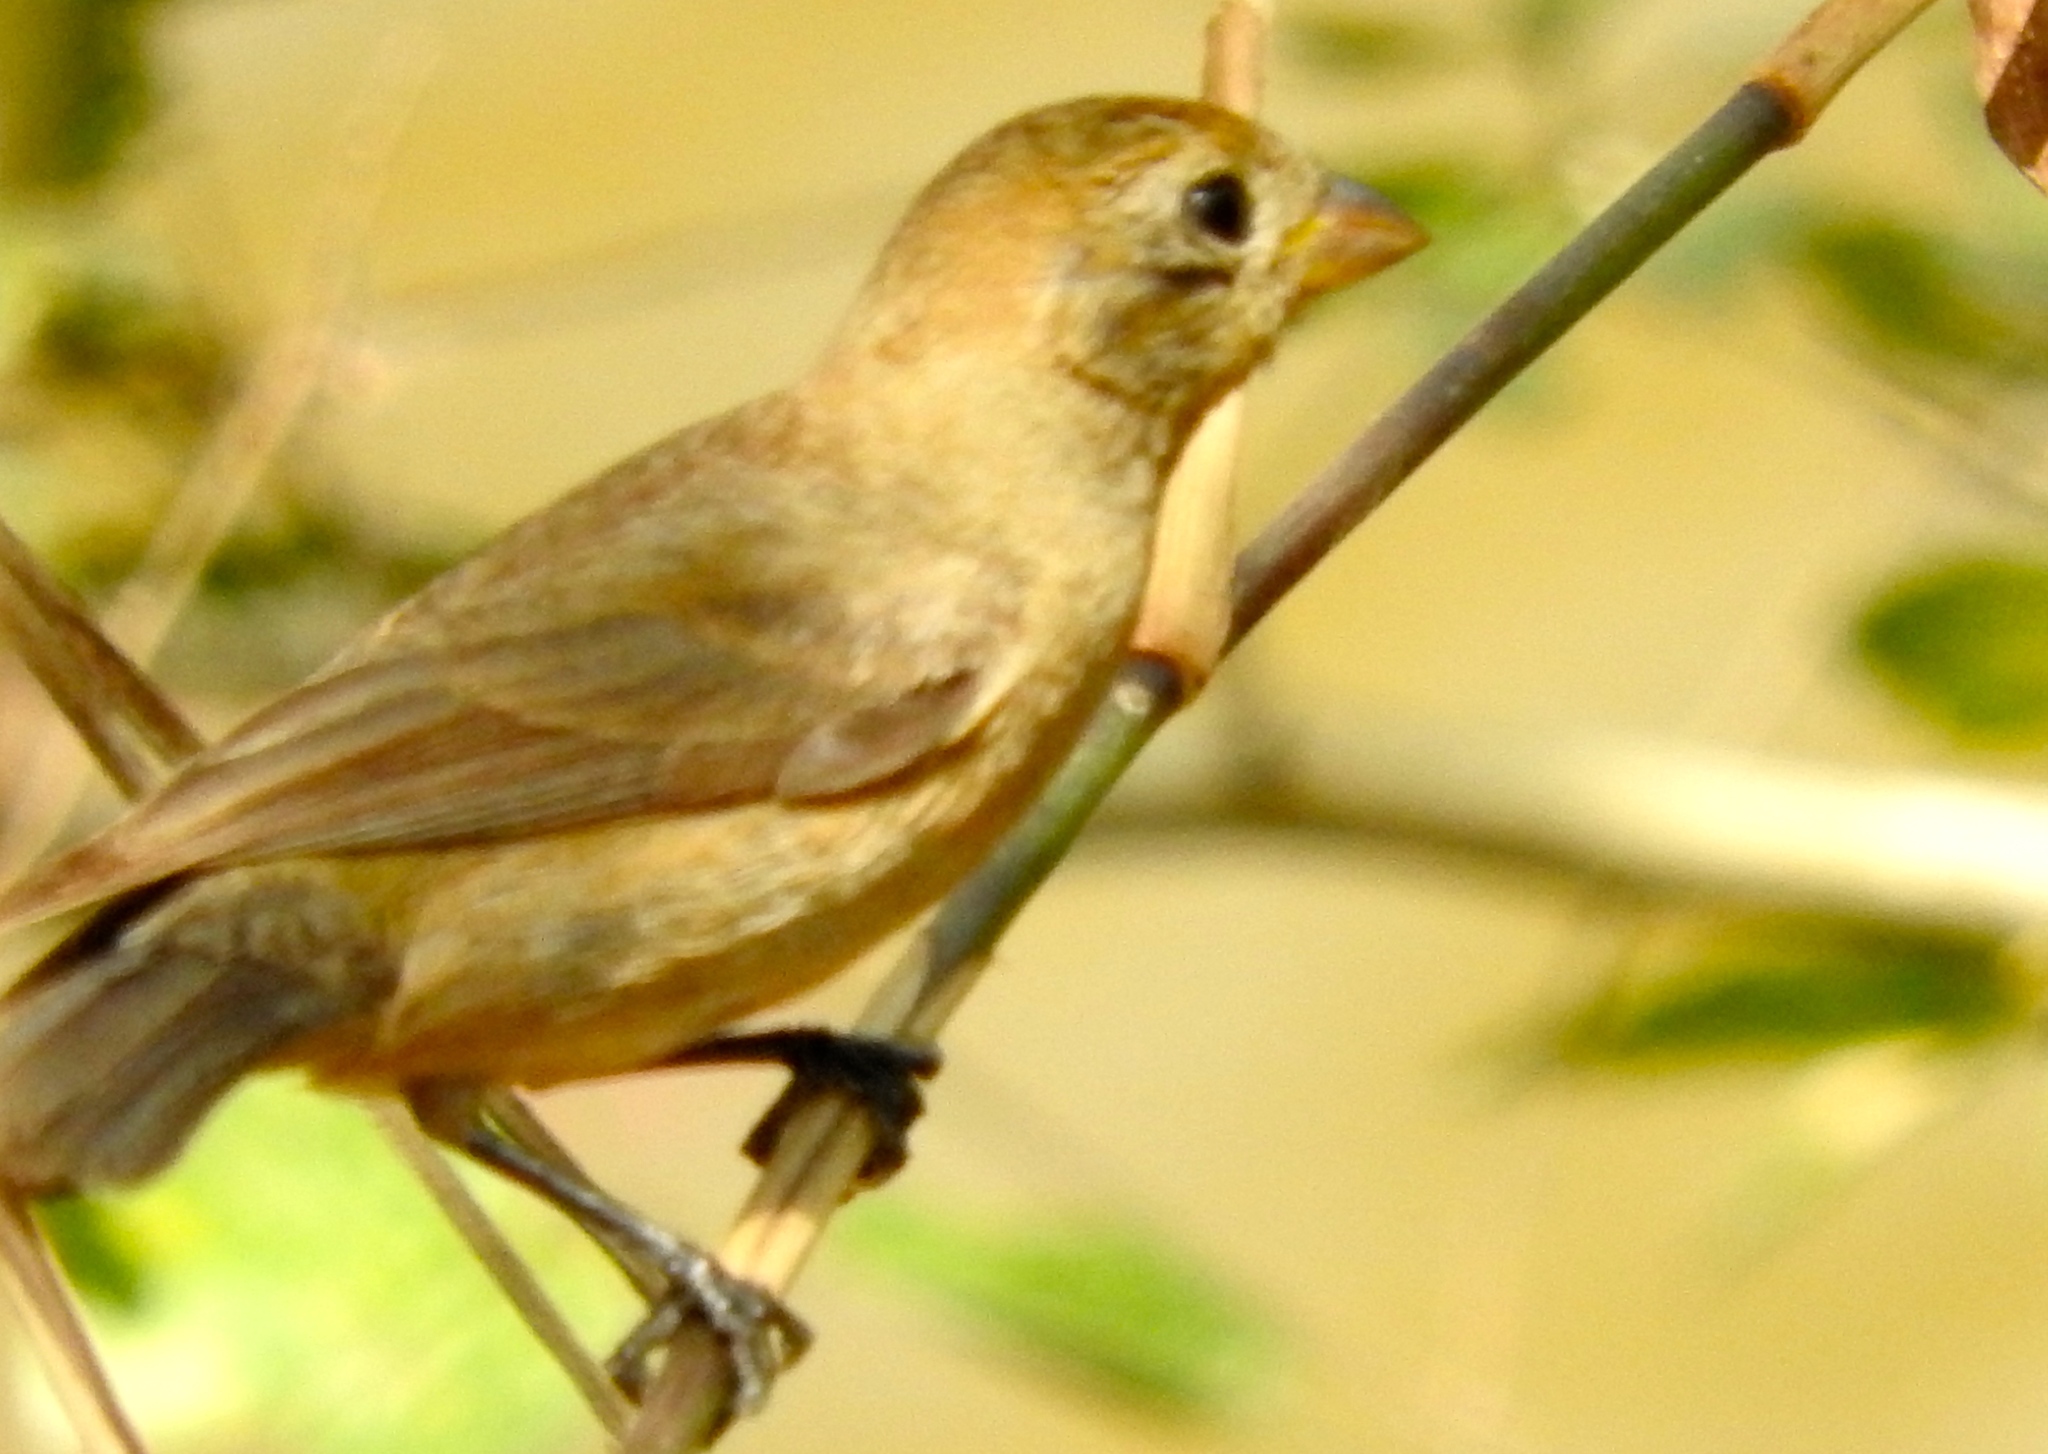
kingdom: Animalia
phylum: Chordata
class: Aves
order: Passeriformes
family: Cardinalidae
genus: Passerina
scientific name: Passerina
